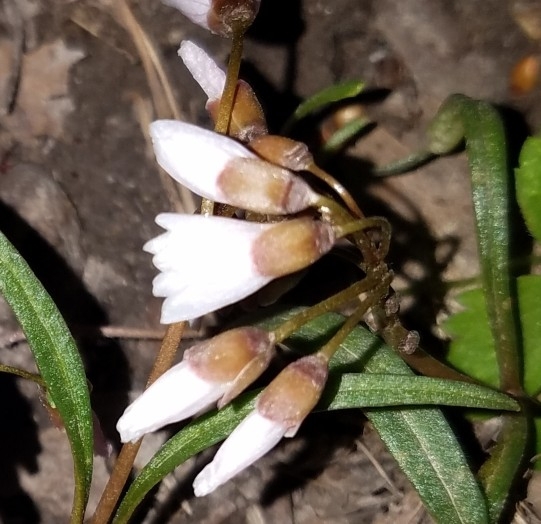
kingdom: Plantae
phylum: Tracheophyta
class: Magnoliopsida
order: Caryophyllales
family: Montiaceae
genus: Claytonia
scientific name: Claytonia virginica
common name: Virginia springbeauty
